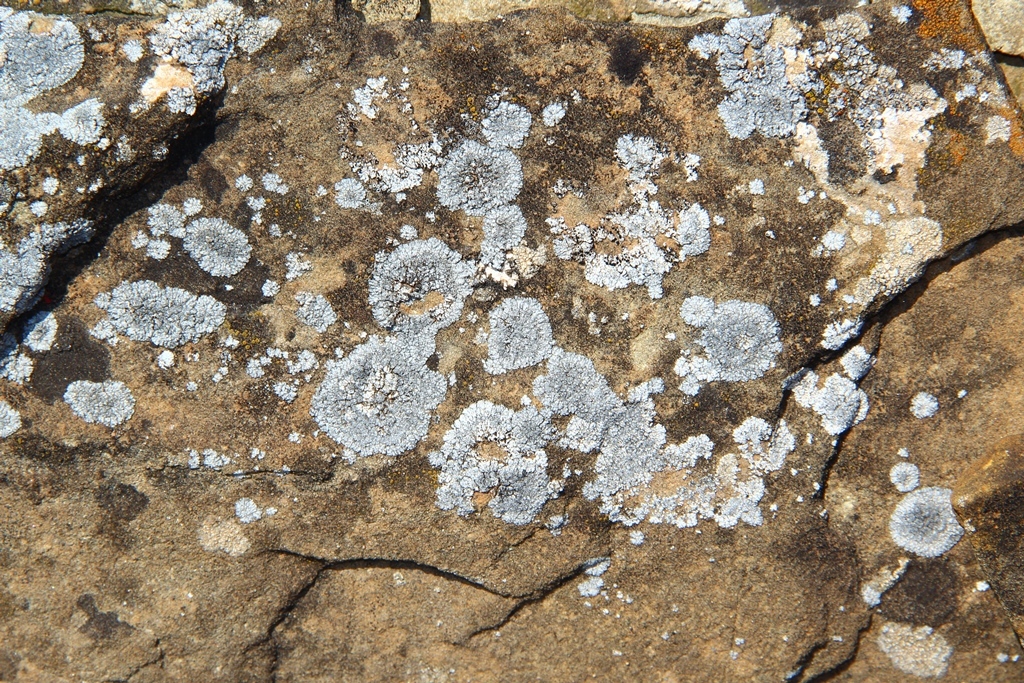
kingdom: Fungi
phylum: Ascomycota
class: Lecanoromycetes
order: Teloschistales
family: Teloschistaceae
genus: Kuettlingeria
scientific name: Kuettlingeria teicholyta
